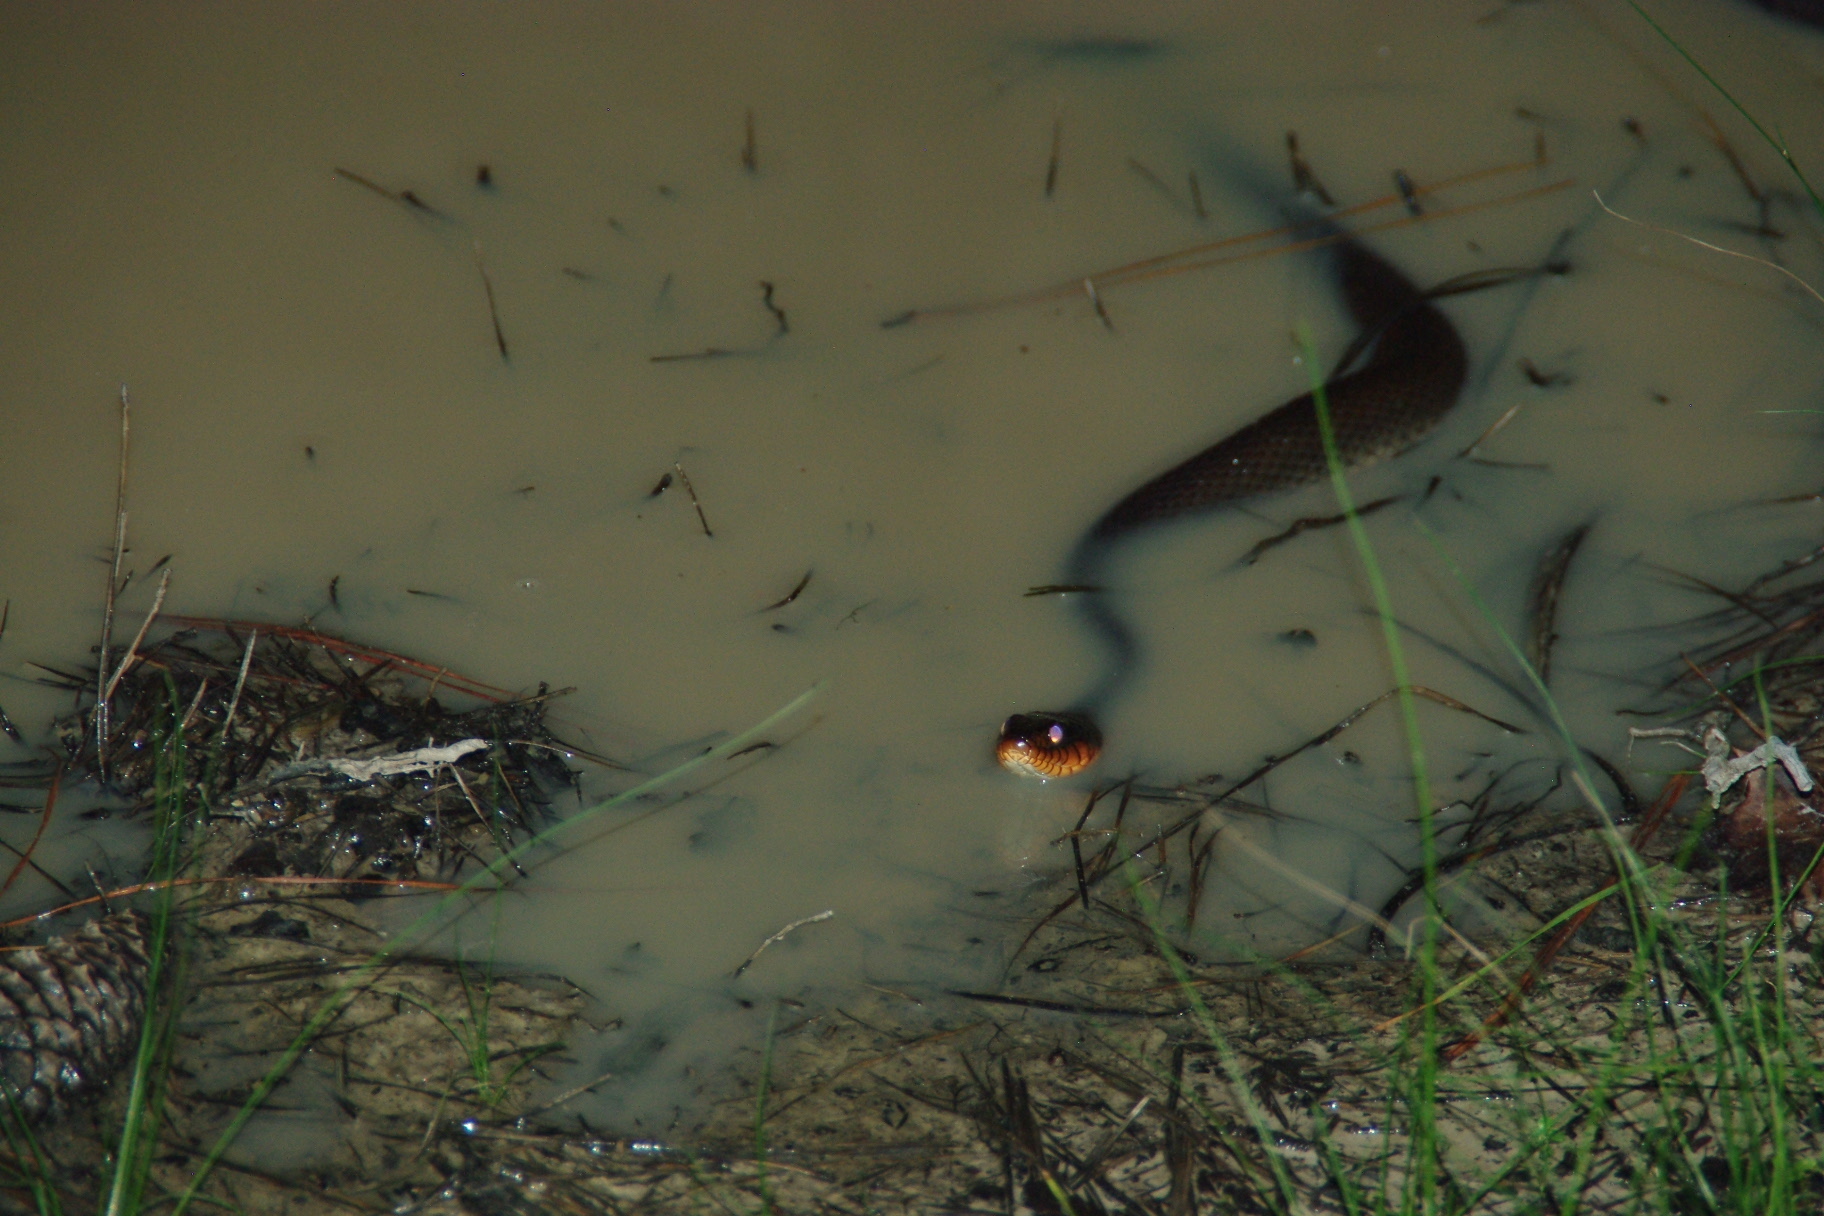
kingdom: Animalia
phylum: Chordata
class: Squamata
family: Colubridae
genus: Nerodia
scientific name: Nerodia erythrogaster
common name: Plainbelly water snake
